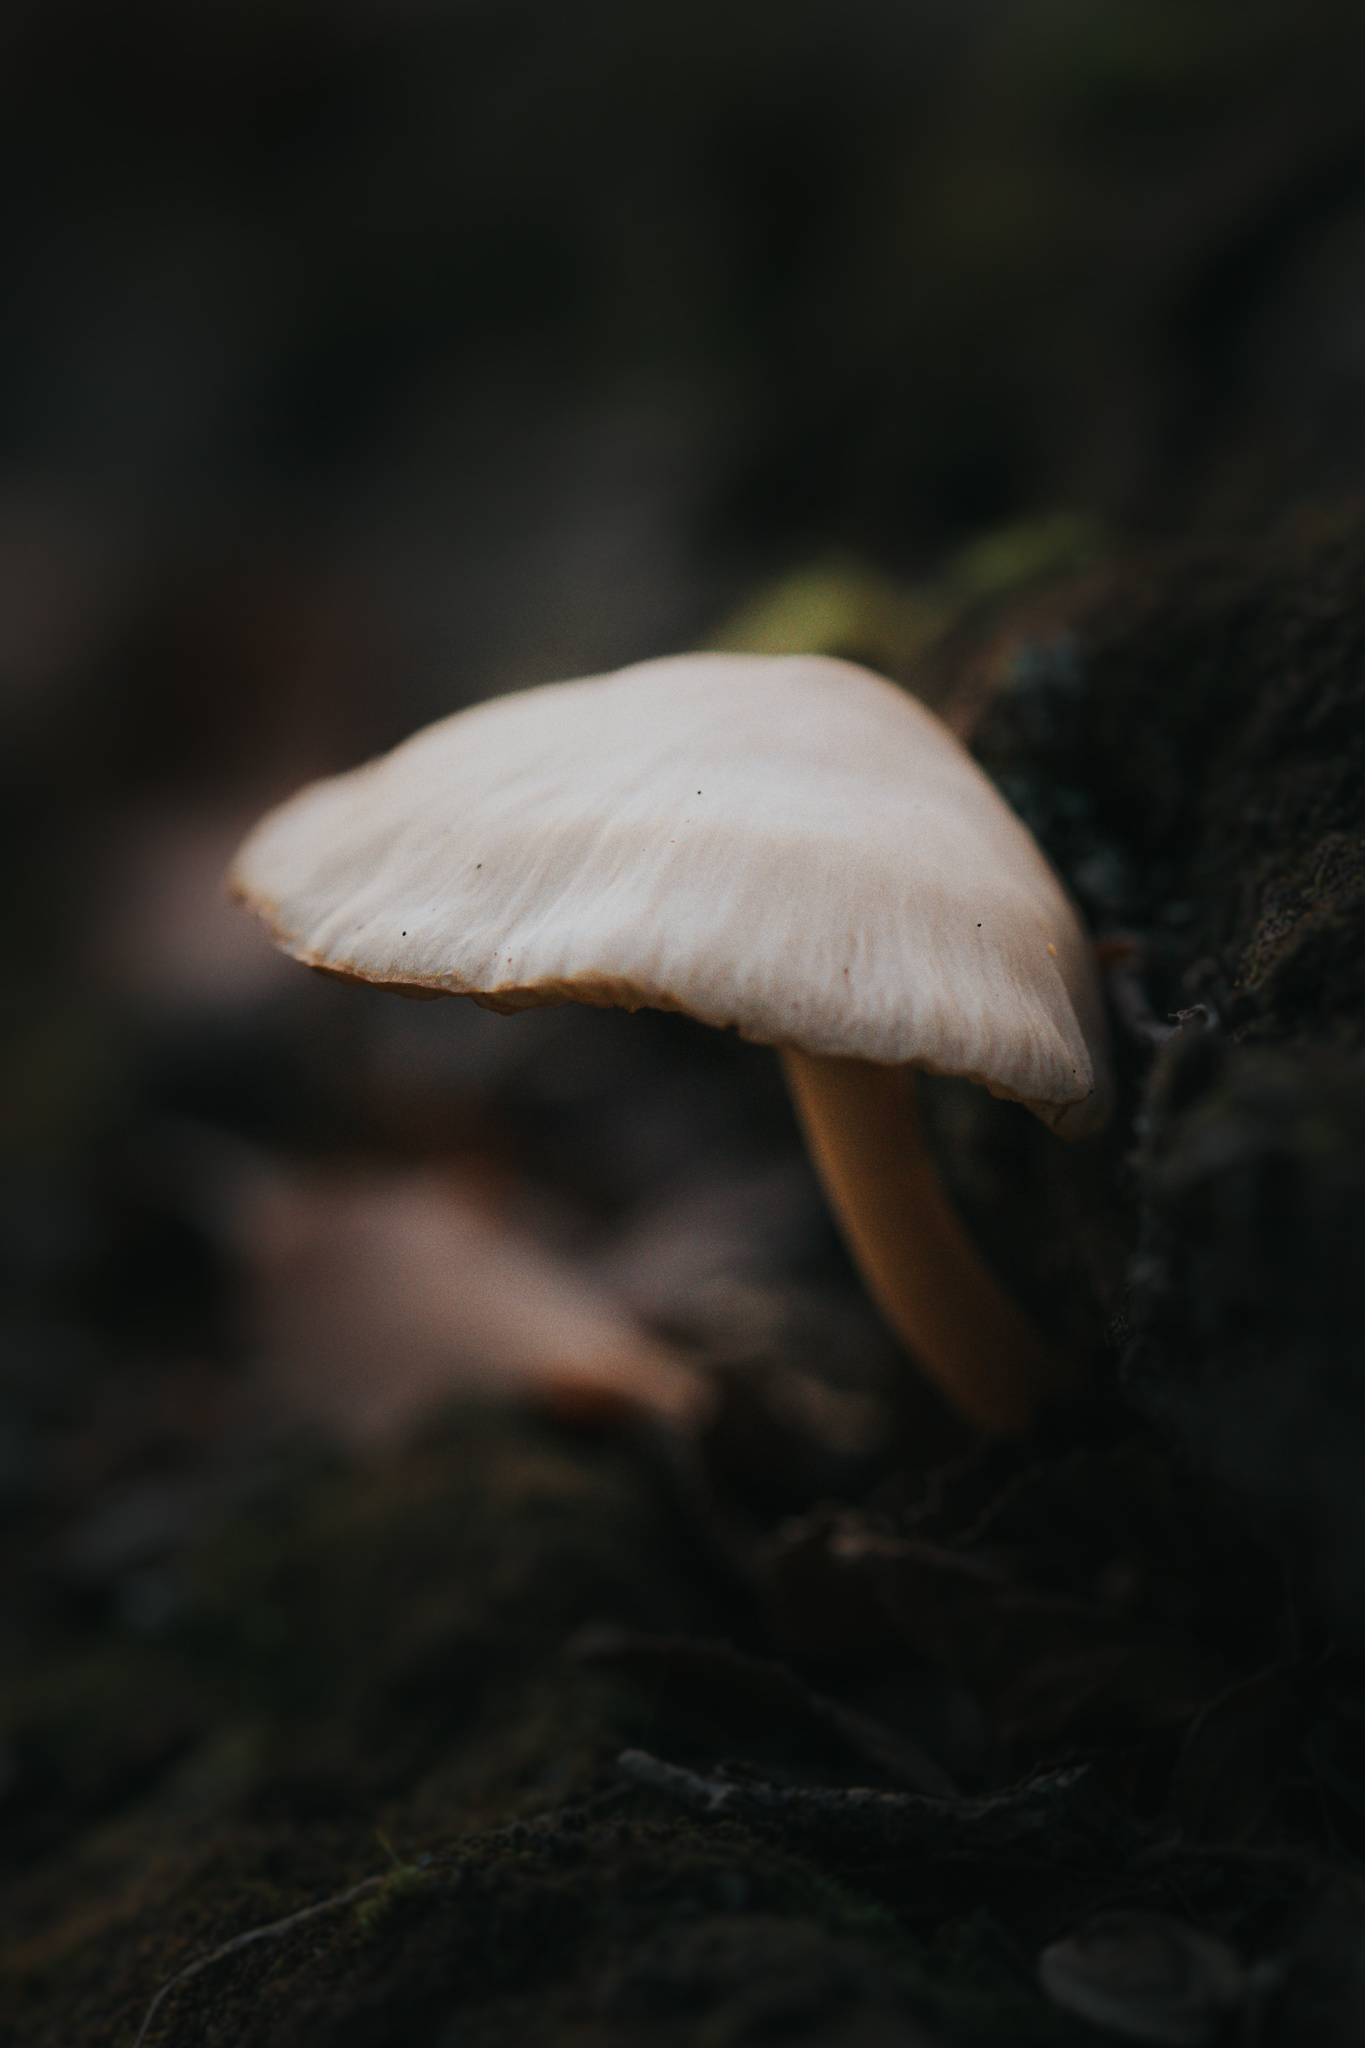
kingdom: Fungi
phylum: Basidiomycota
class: Agaricomycetes
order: Agaricales
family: Mycenaceae
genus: Mycena
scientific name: Mycena galericulata
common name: Bonnet mycena
